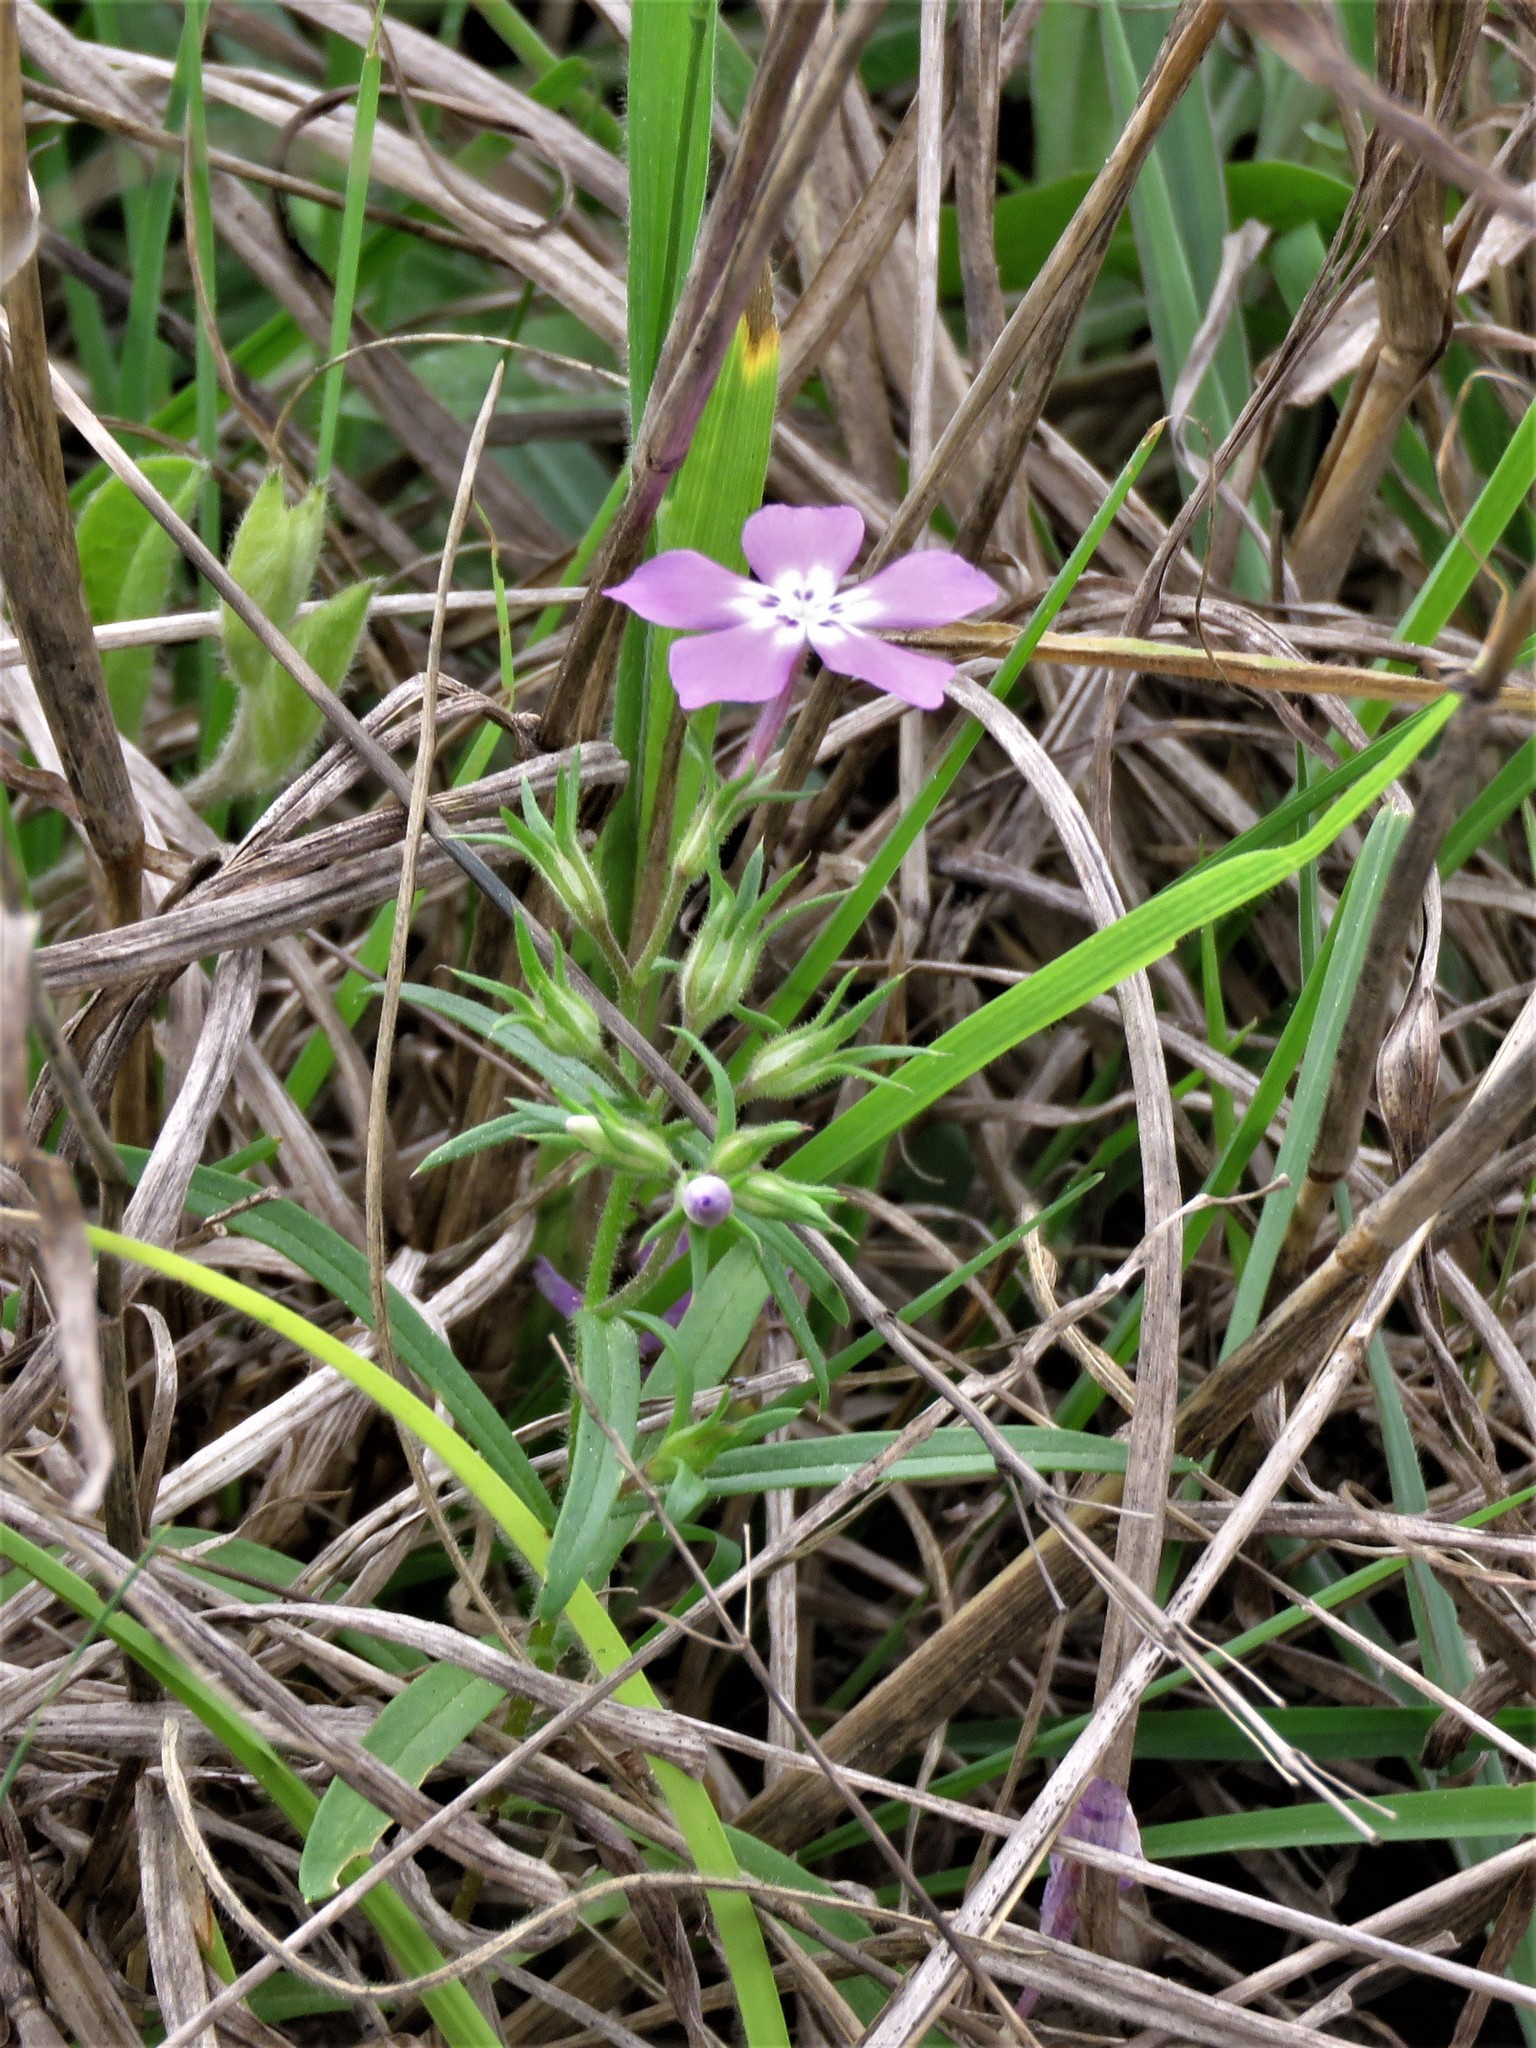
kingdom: Plantae
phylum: Tracheophyta
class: Magnoliopsida
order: Ericales
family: Polemoniaceae
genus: Phlox
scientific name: Phlox cuspidata
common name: Pointed phlox
